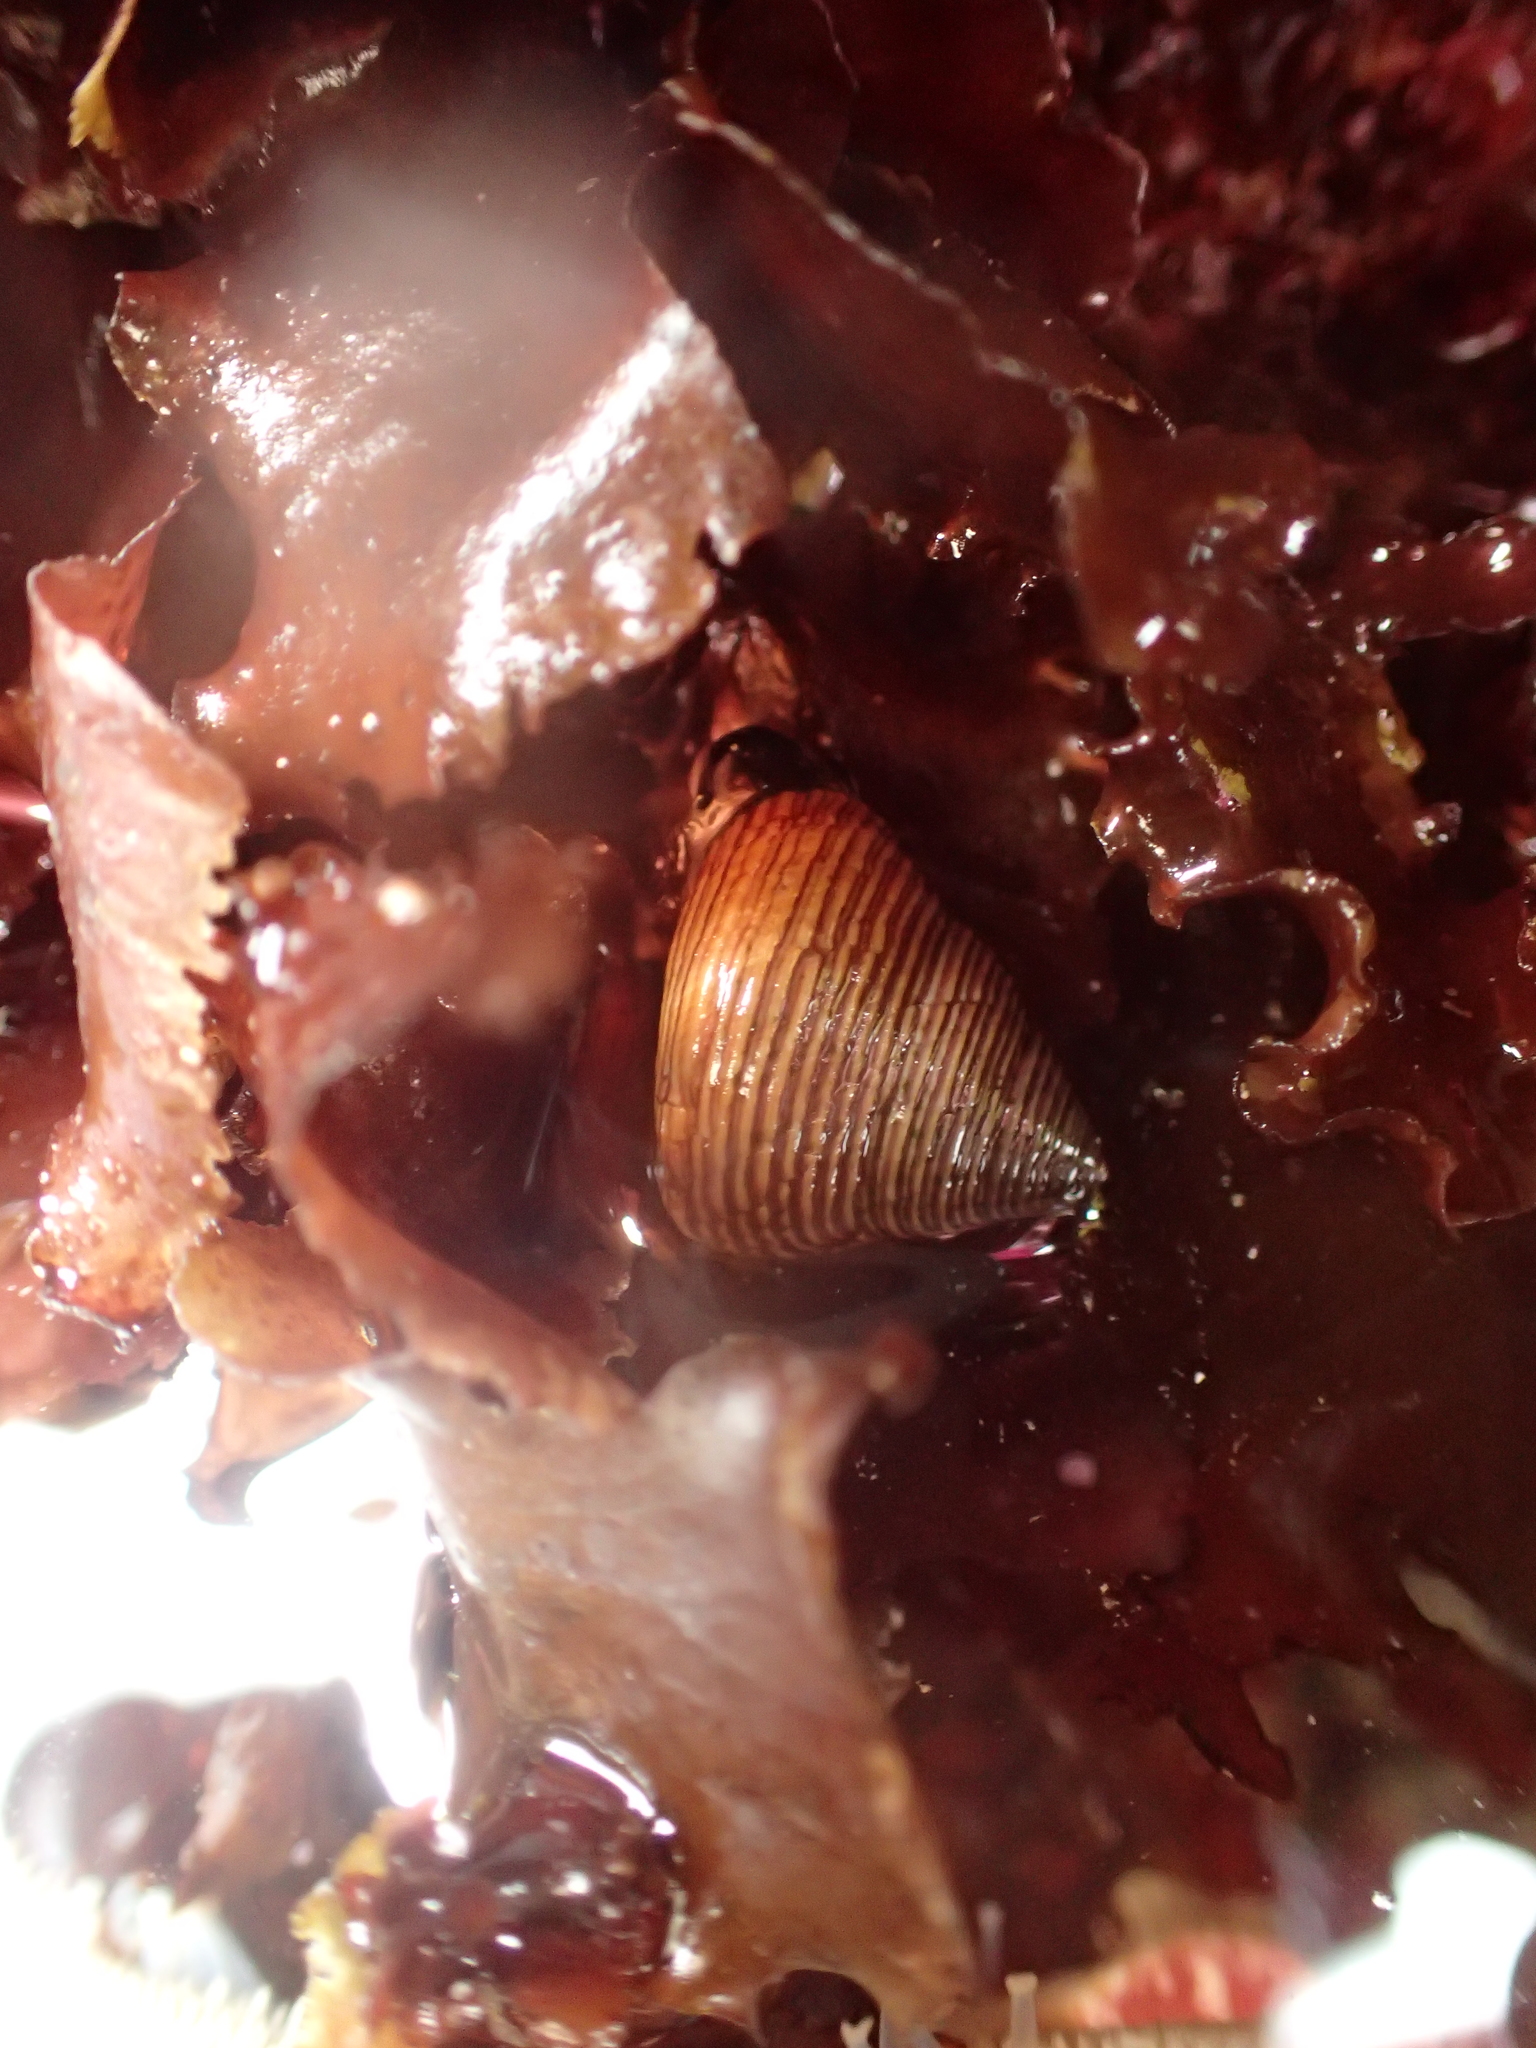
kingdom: Animalia
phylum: Mollusca
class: Gastropoda
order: Trochida
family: Calliostomatidae
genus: Calliostoma
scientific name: Calliostoma ligatum
